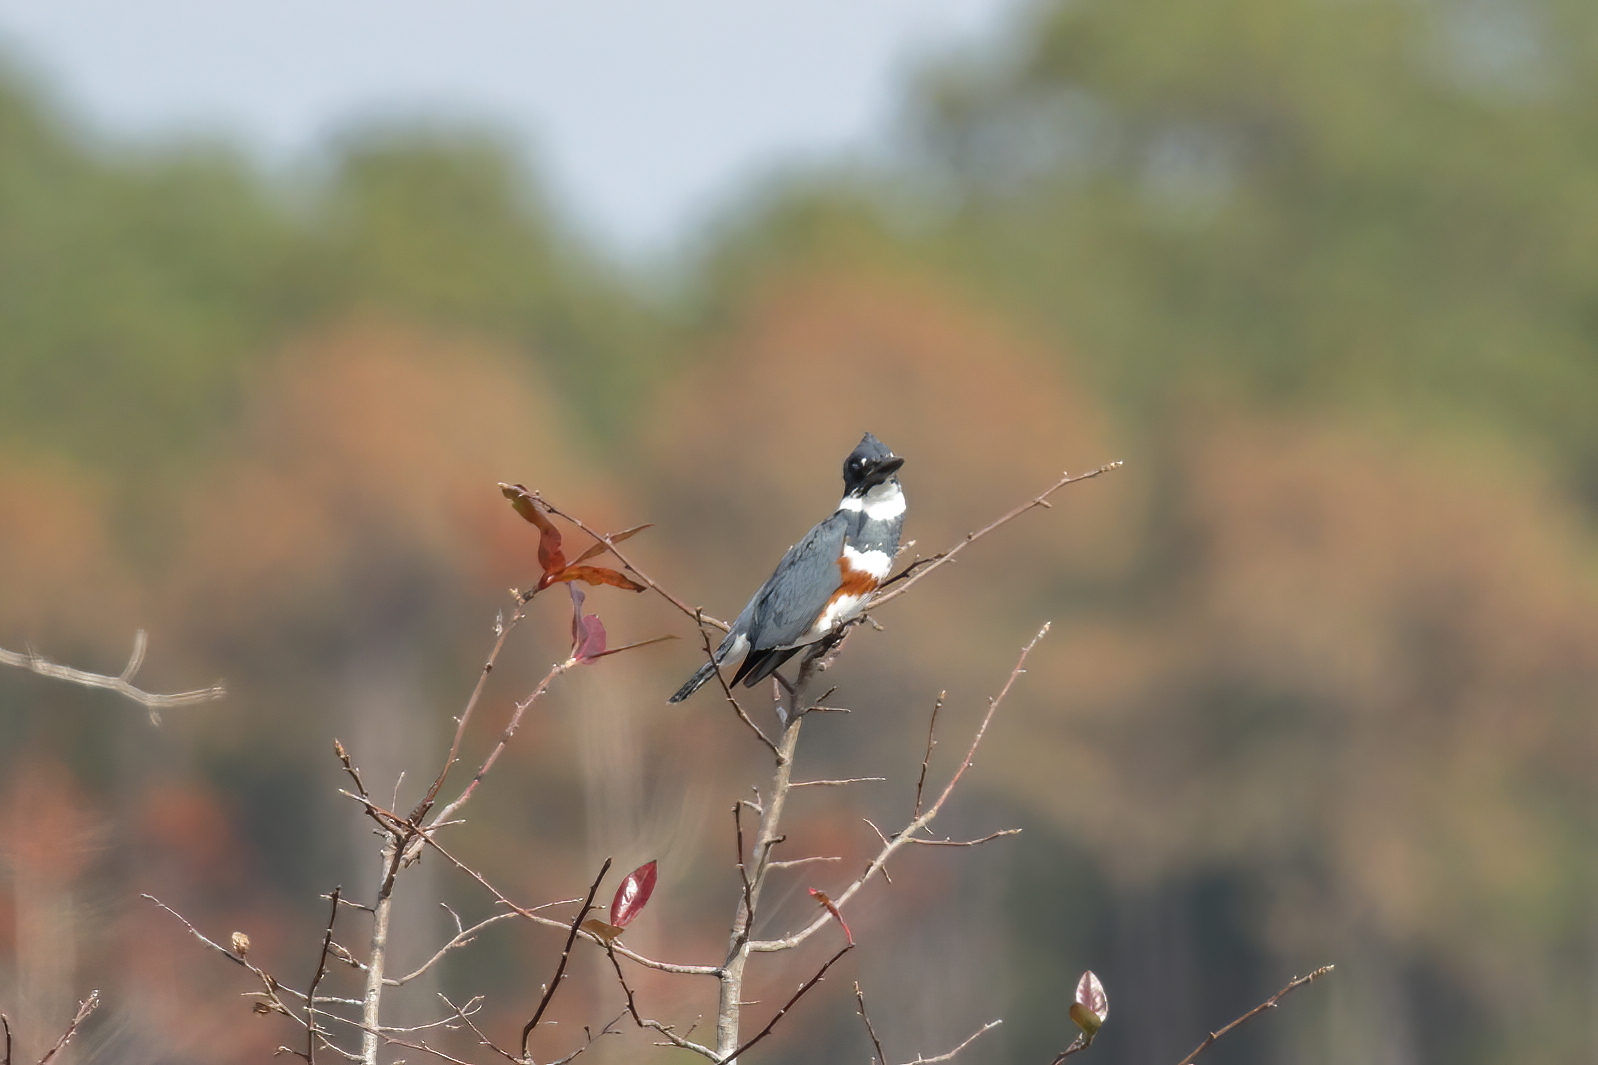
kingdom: Animalia
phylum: Chordata
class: Aves
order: Coraciiformes
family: Alcedinidae
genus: Megaceryle
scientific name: Megaceryle alcyon
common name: Belted kingfisher
